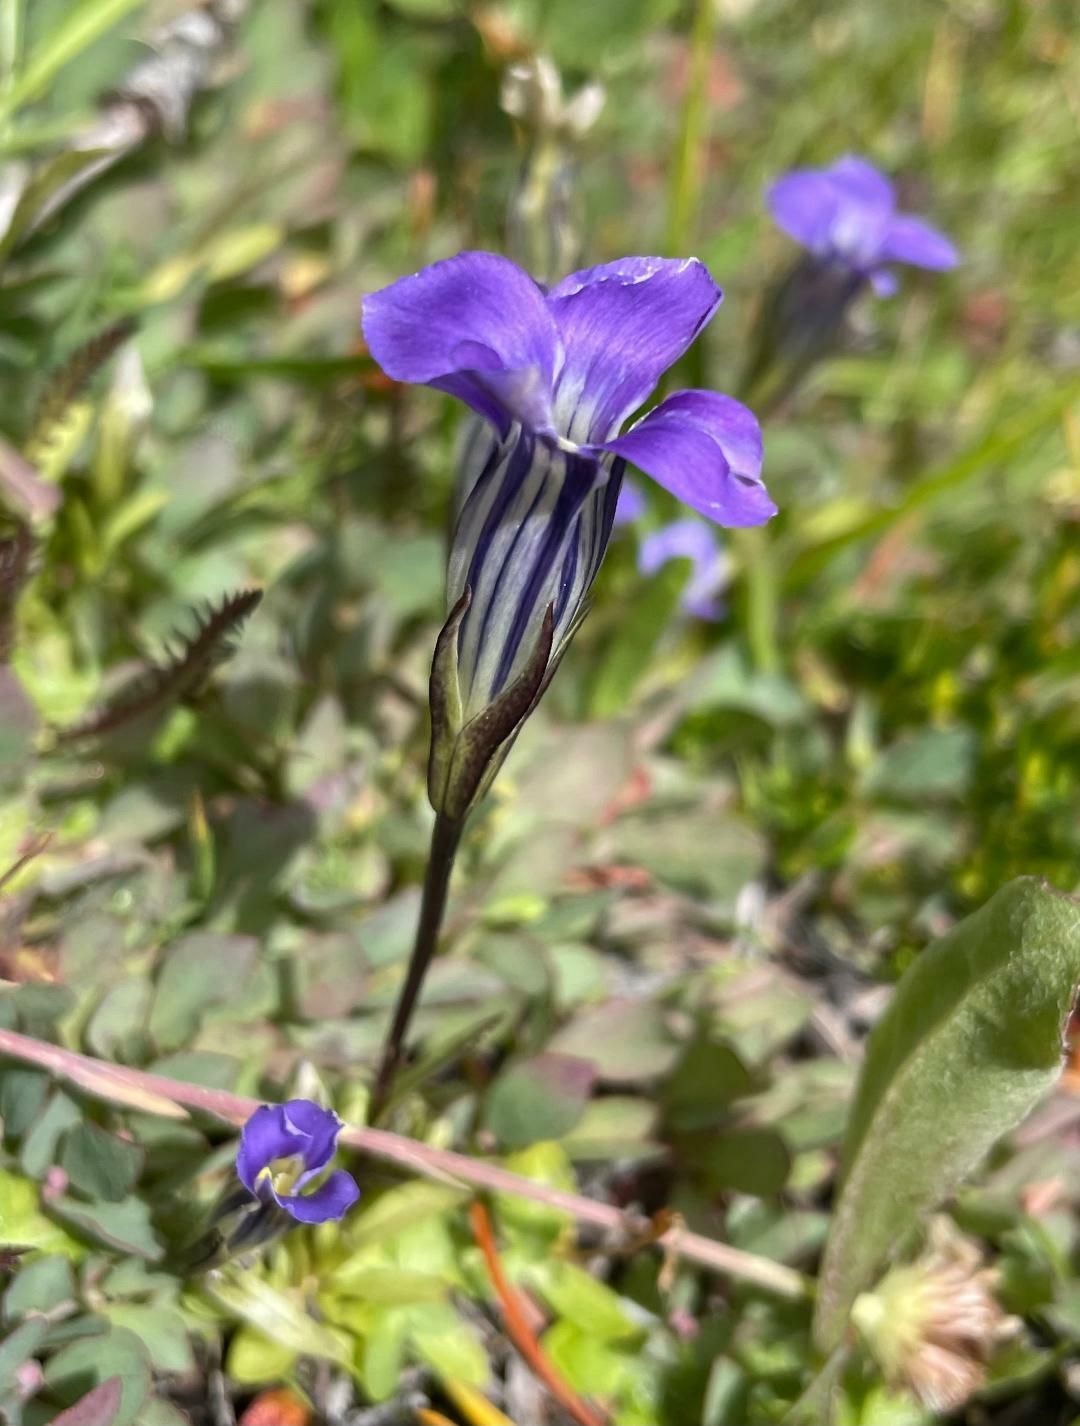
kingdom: Plantae
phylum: Tracheophyta
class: Magnoliopsida
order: Gentianales
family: Gentianaceae
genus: Gentianopsis
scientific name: Gentianopsis holopetala
